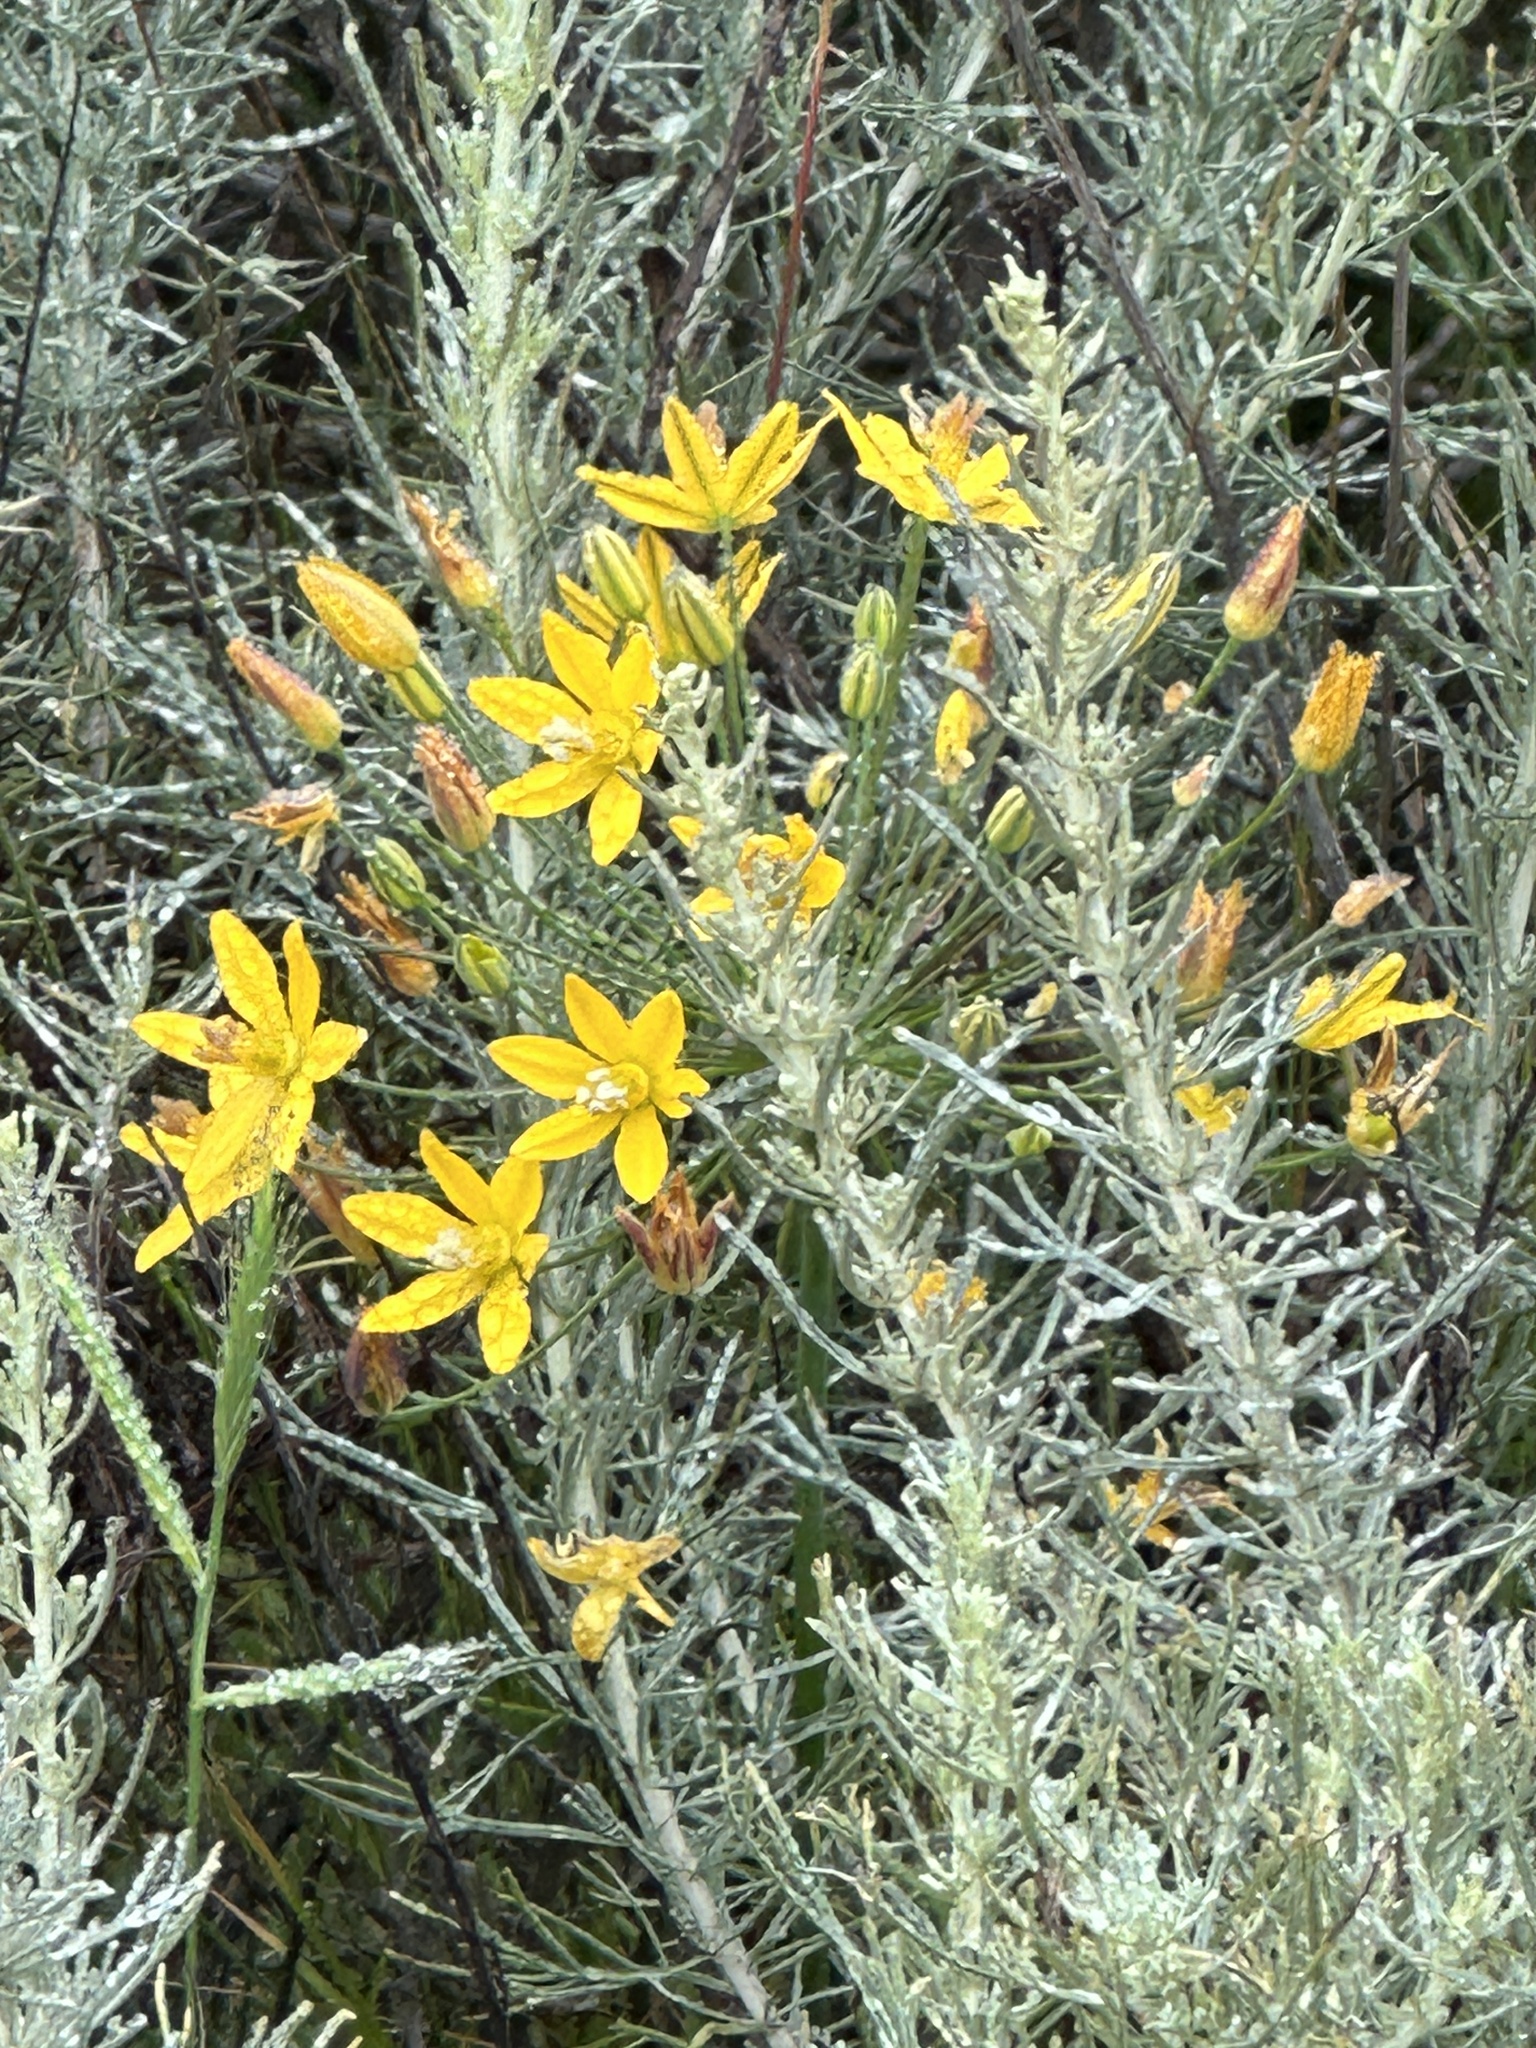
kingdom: Plantae
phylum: Tracheophyta
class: Liliopsida
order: Asparagales
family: Asparagaceae
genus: Bloomeria
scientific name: Bloomeria crocea
